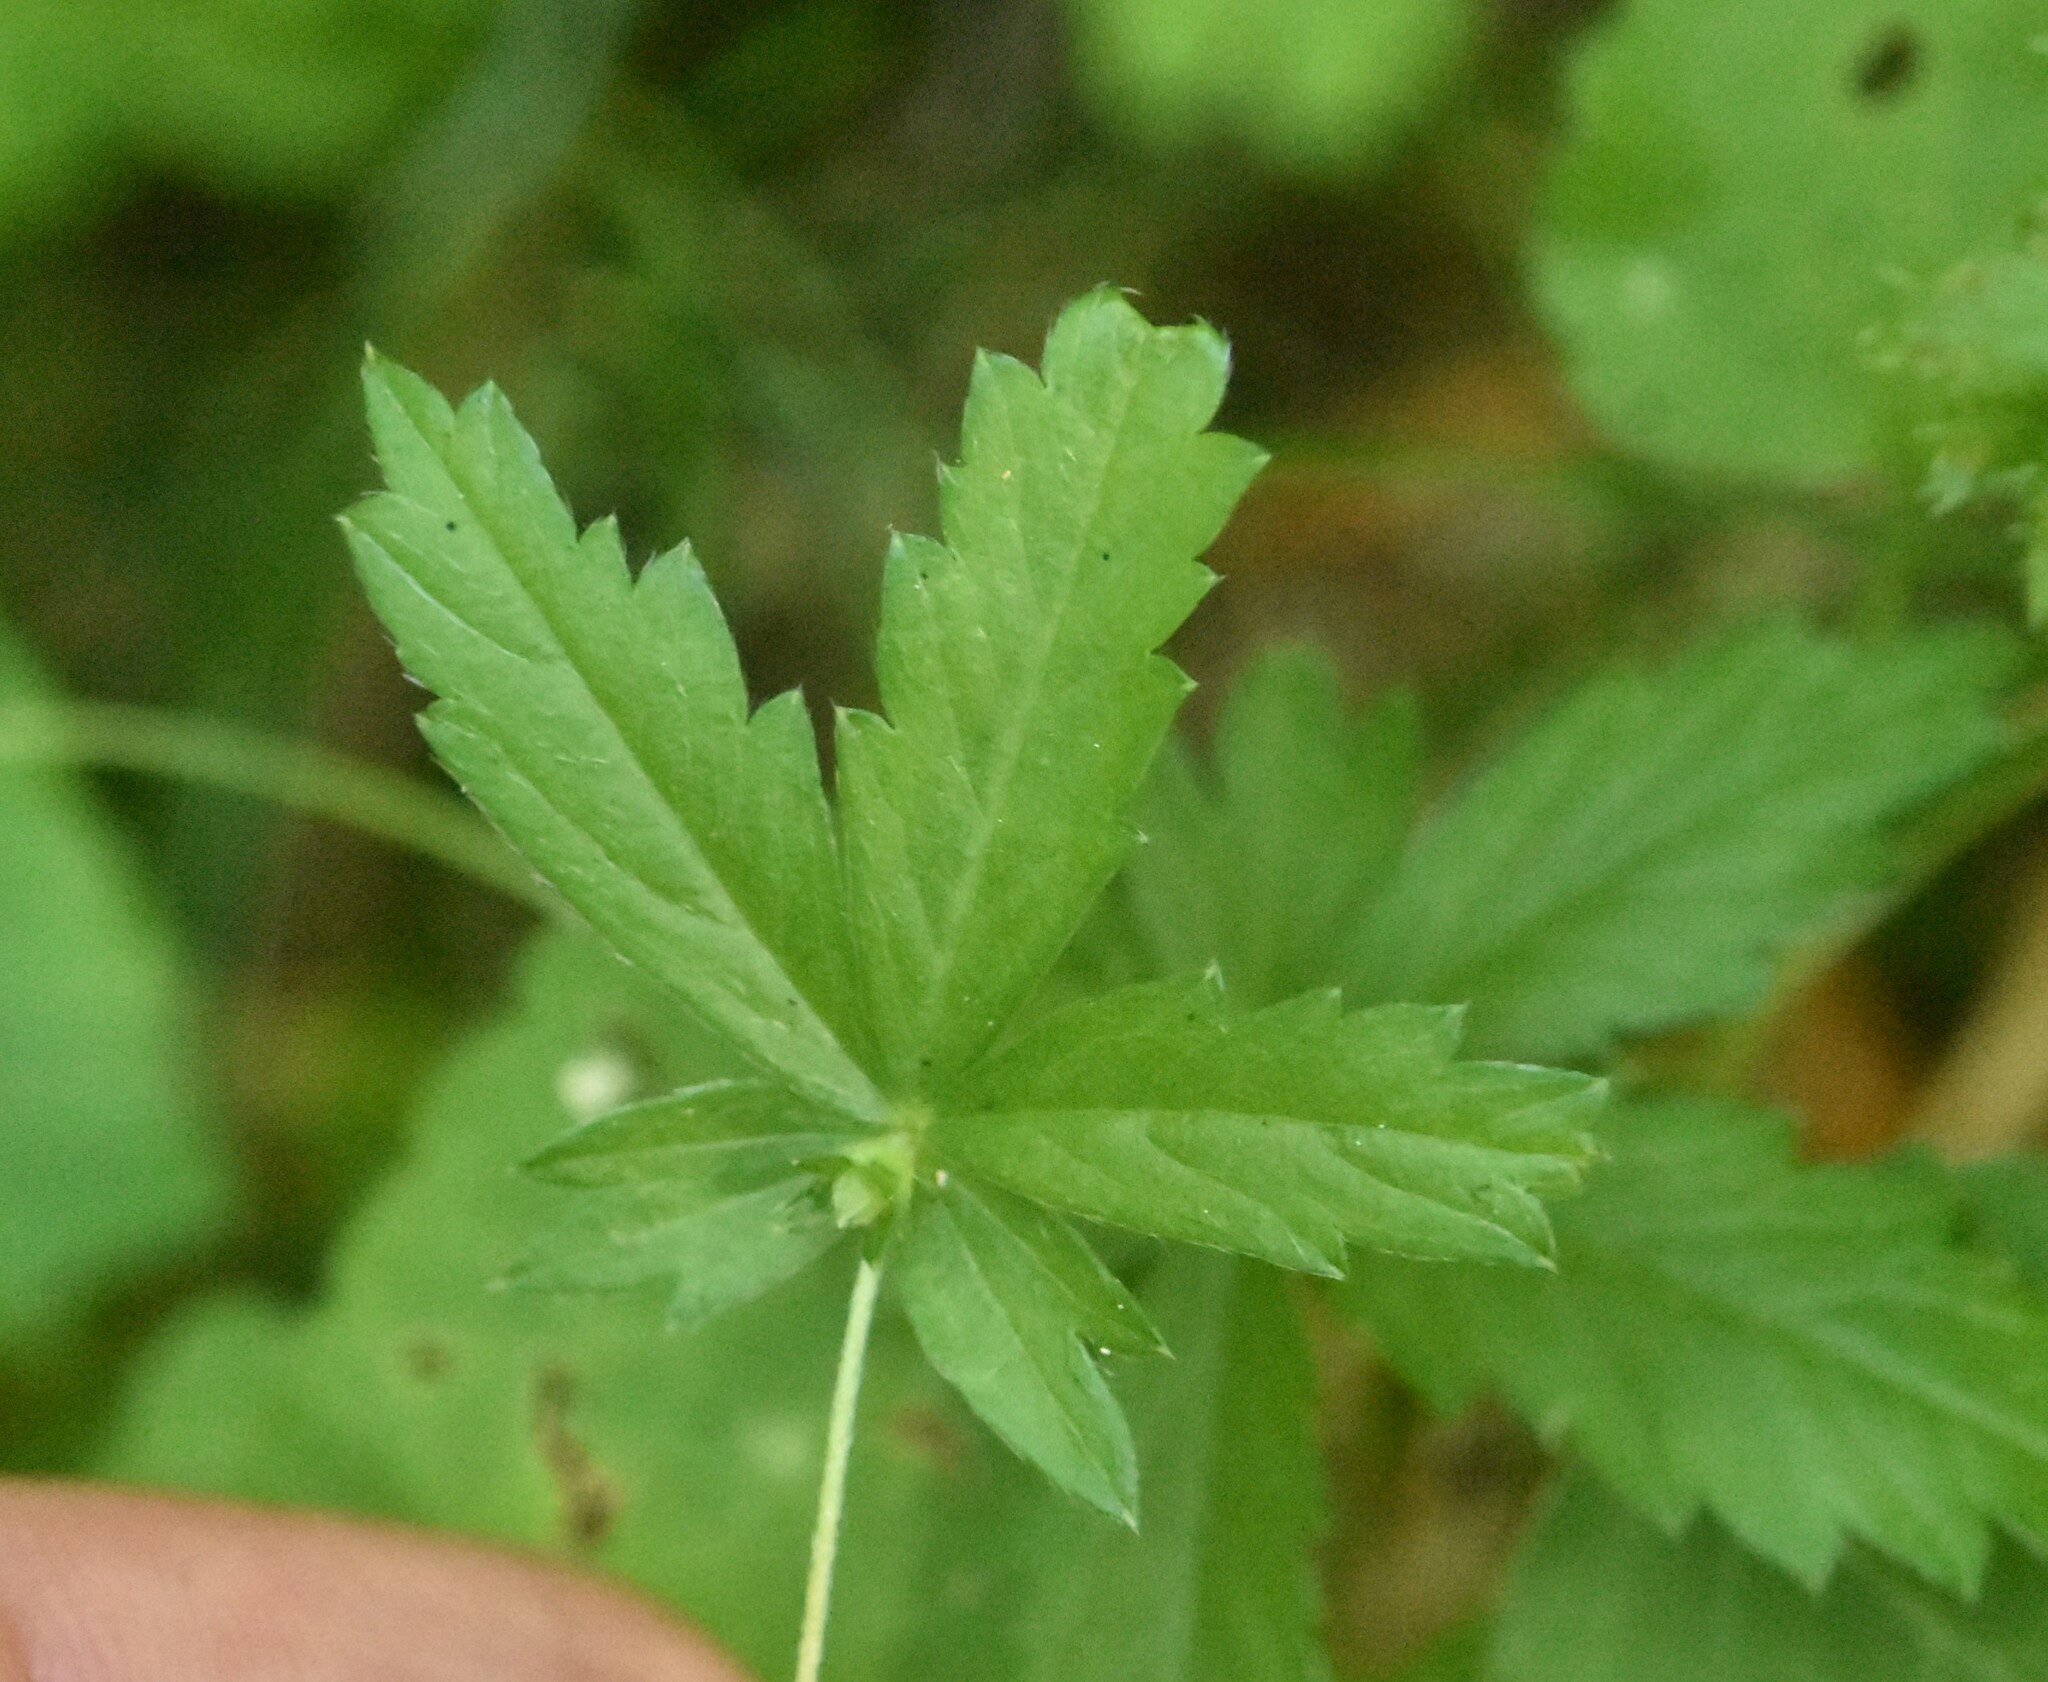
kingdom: Plantae
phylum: Tracheophyta
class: Magnoliopsida
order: Rosales
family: Rosaceae
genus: Potentilla
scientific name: Potentilla erecta
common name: Tormentil
